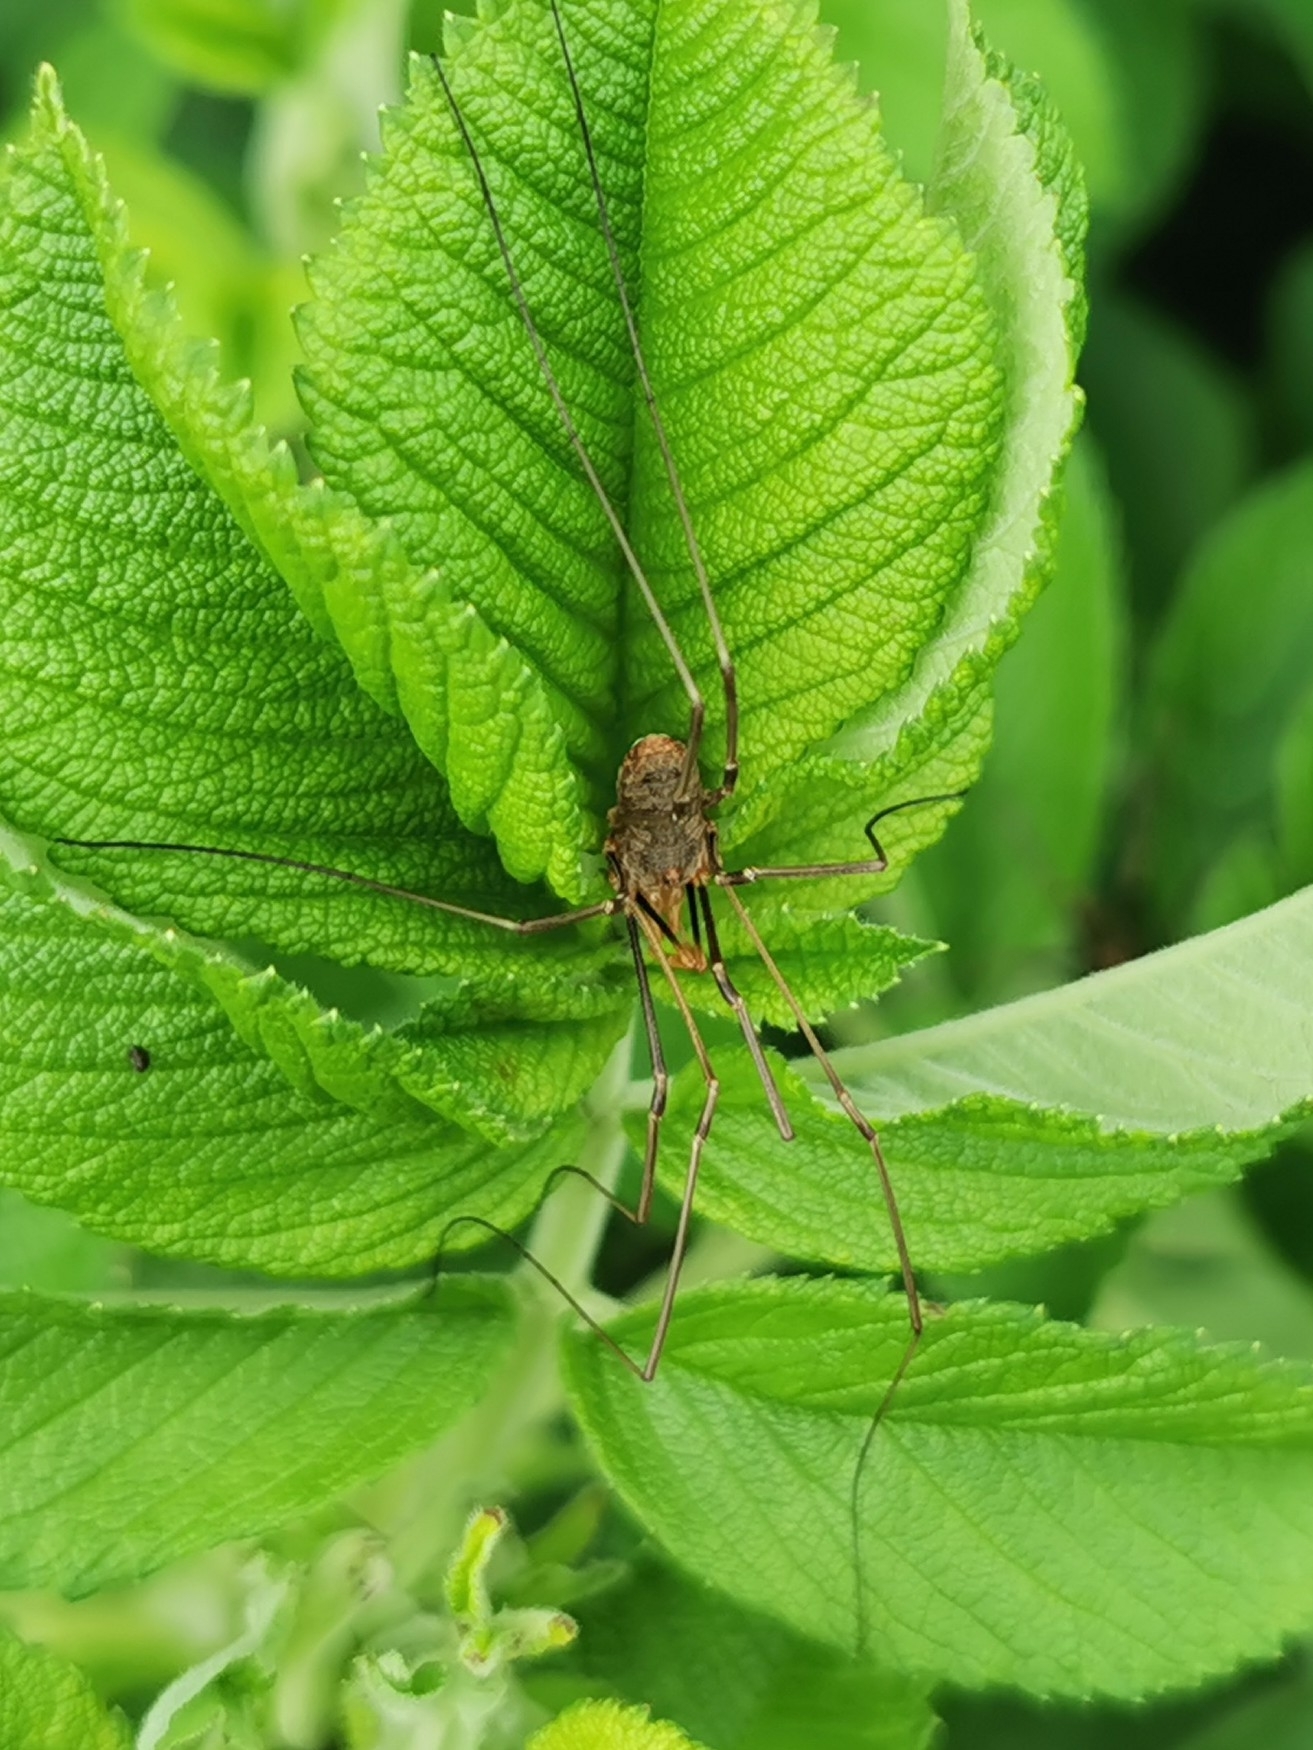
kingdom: Animalia
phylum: Arthropoda
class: Arachnida
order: Opiliones
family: Phalangiidae
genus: Phalangium
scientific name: Phalangium opilio
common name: Daddy longleg
